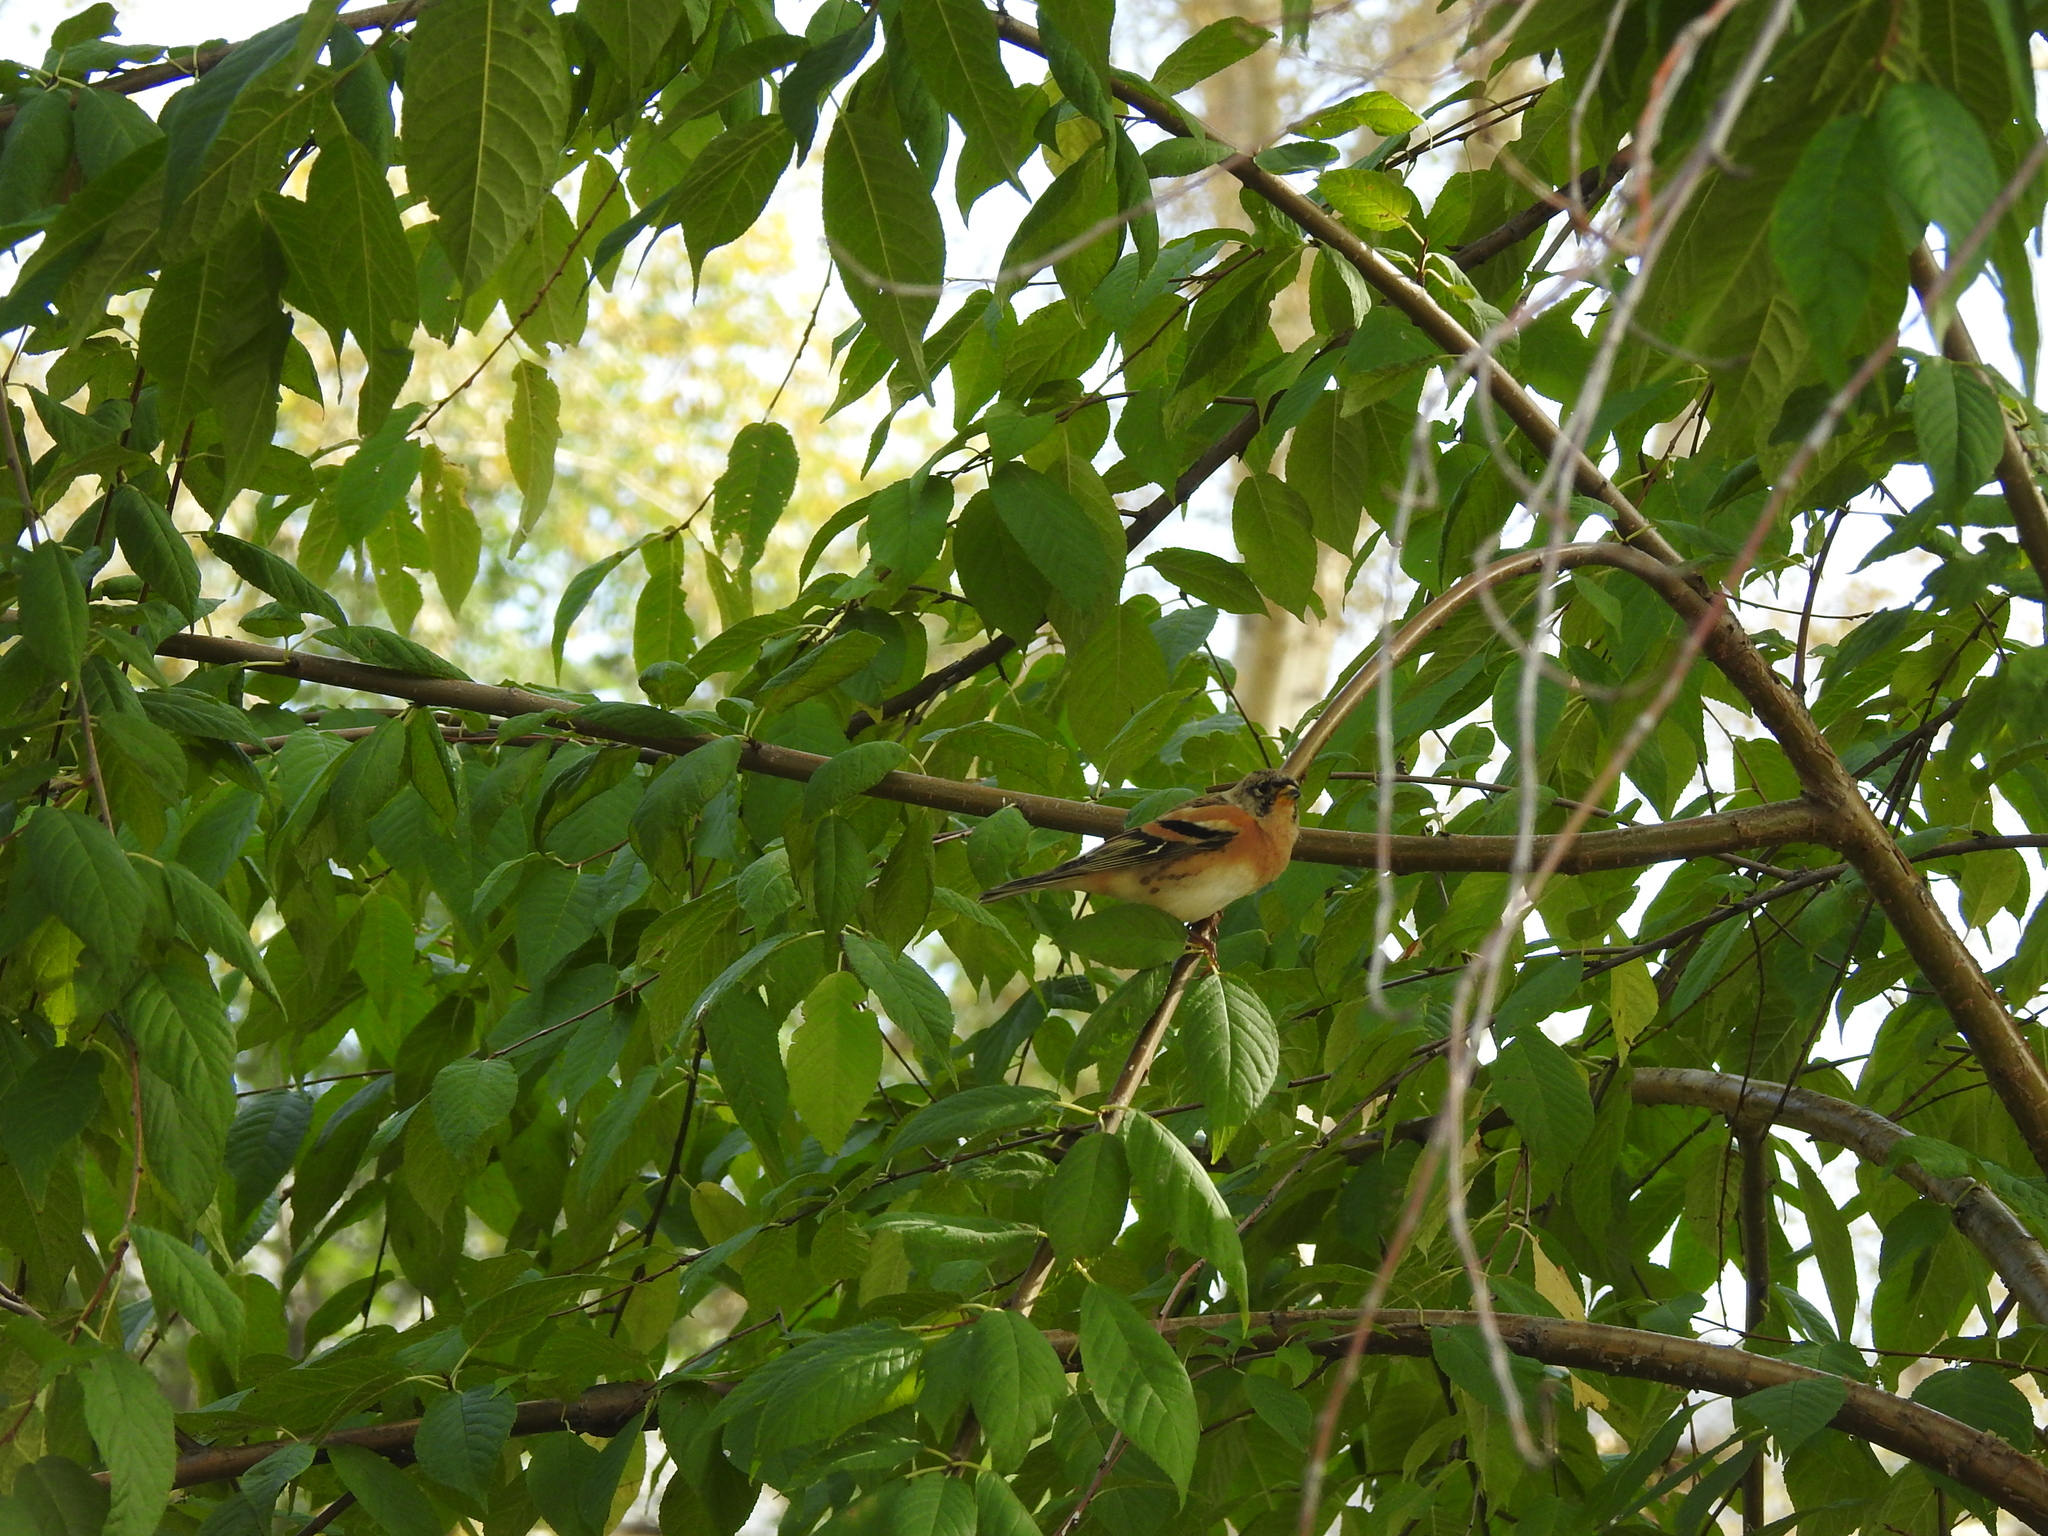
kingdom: Animalia
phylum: Chordata
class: Aves
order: Passeriformes
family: Fringillidae
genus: Fringilla
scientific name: Fringilla montifringilla
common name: Brambling
